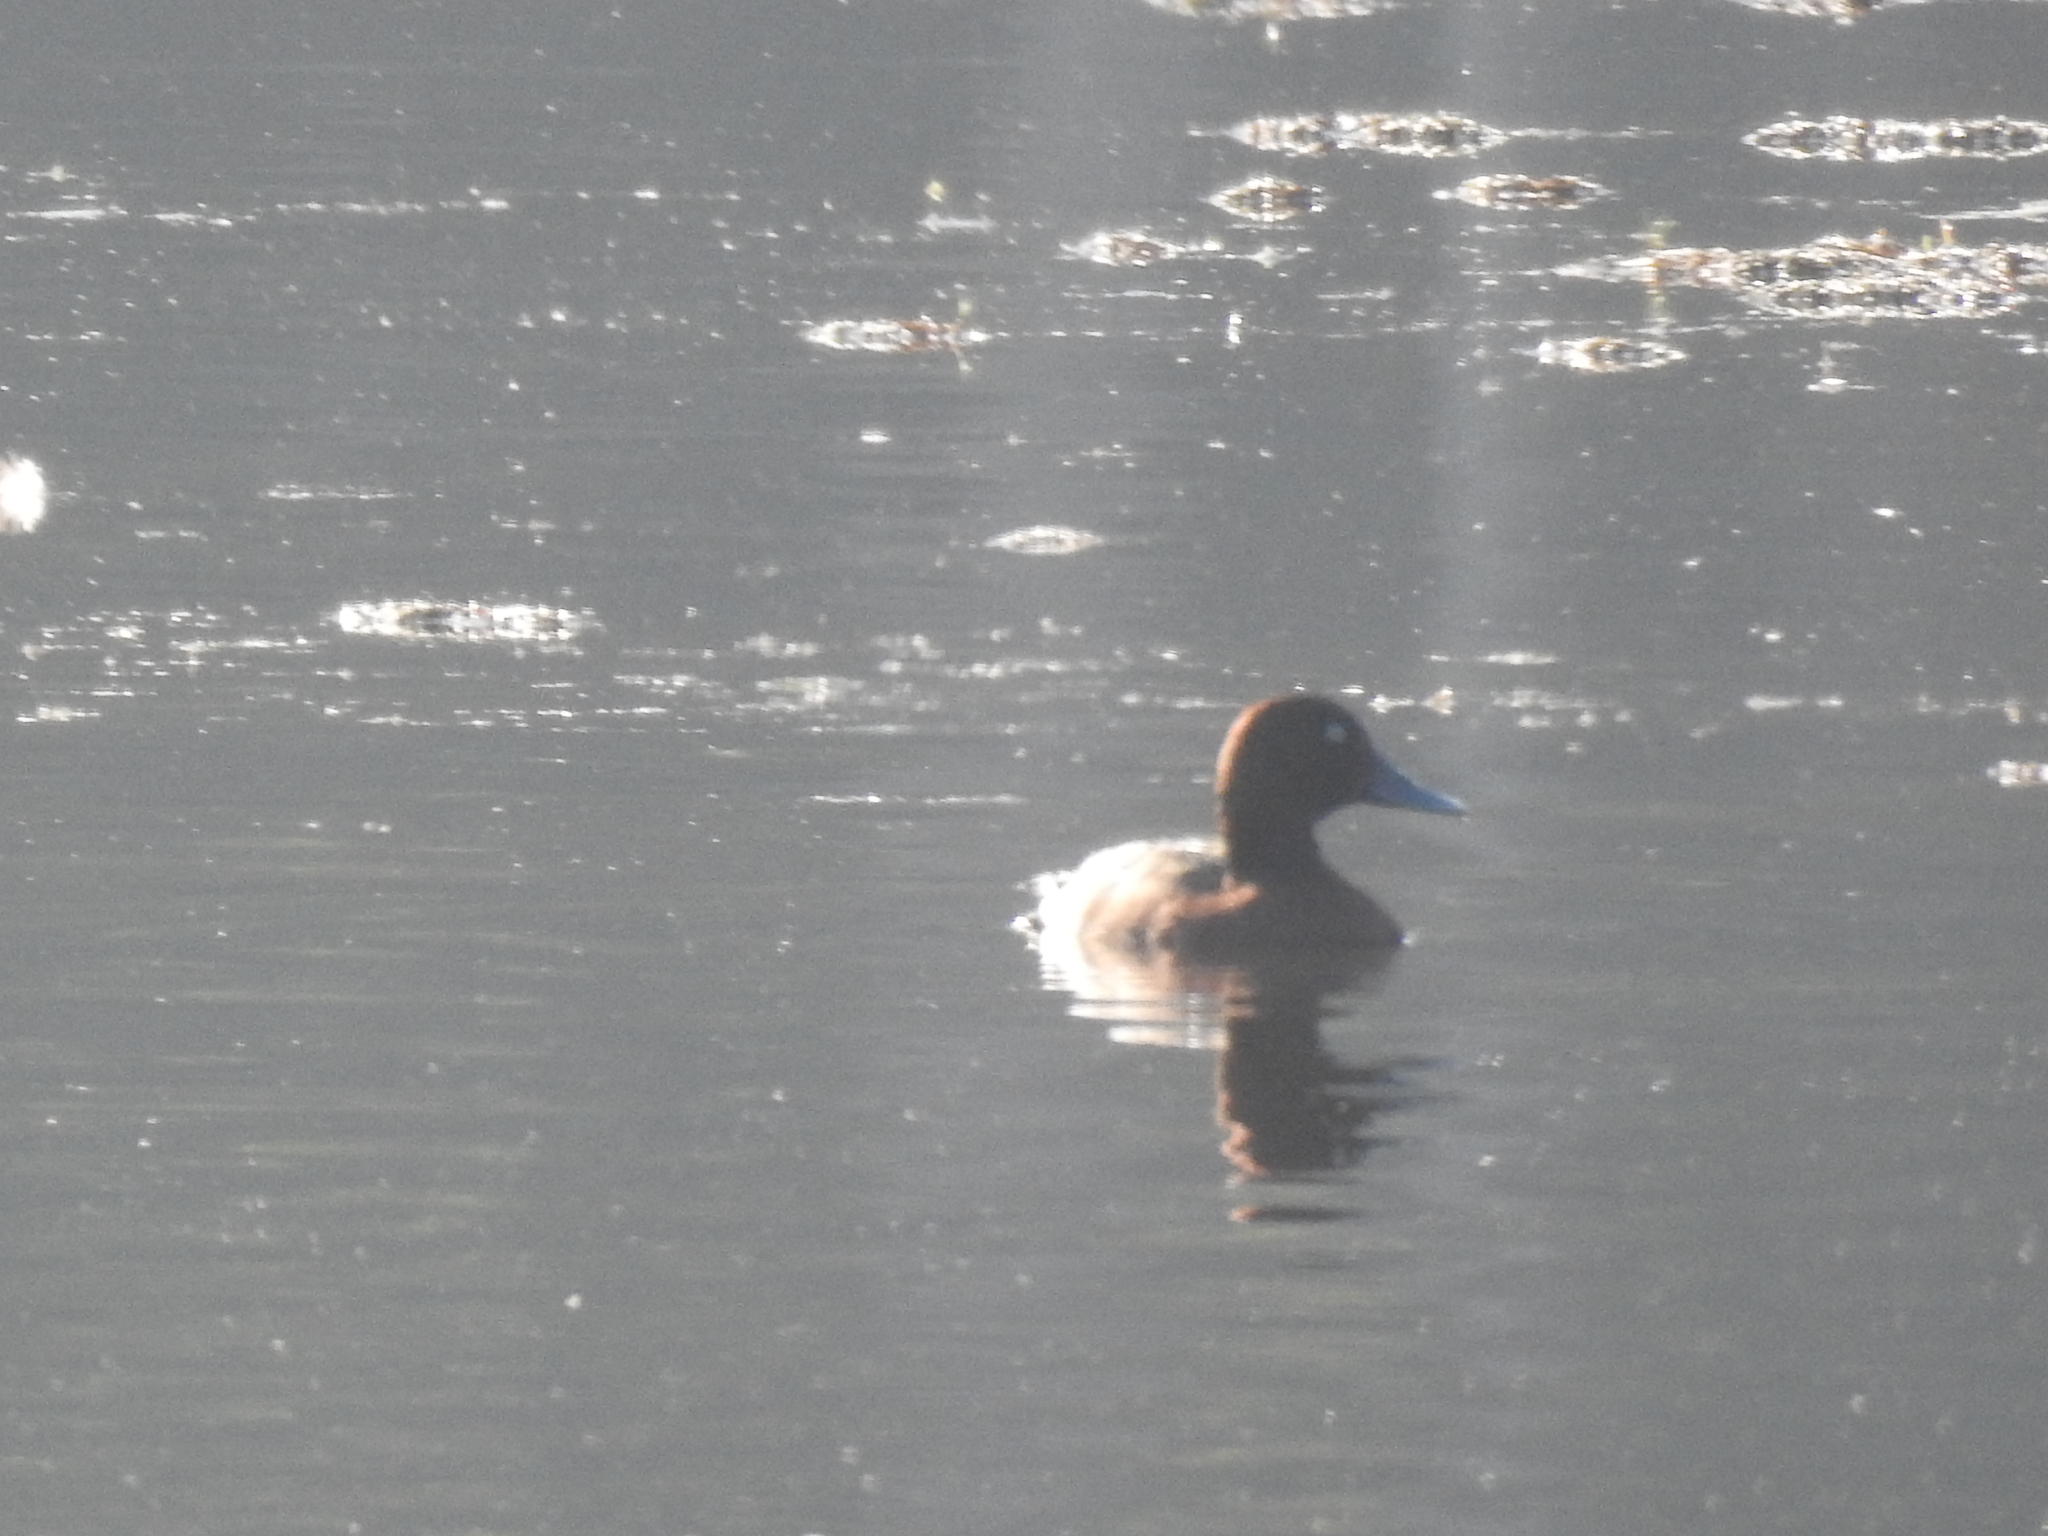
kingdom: Animalia
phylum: Chordata
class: Aves
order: Anseriformes
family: Anatidae
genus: Aythya
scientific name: Aythya nyroca
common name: Ferruginous duck
